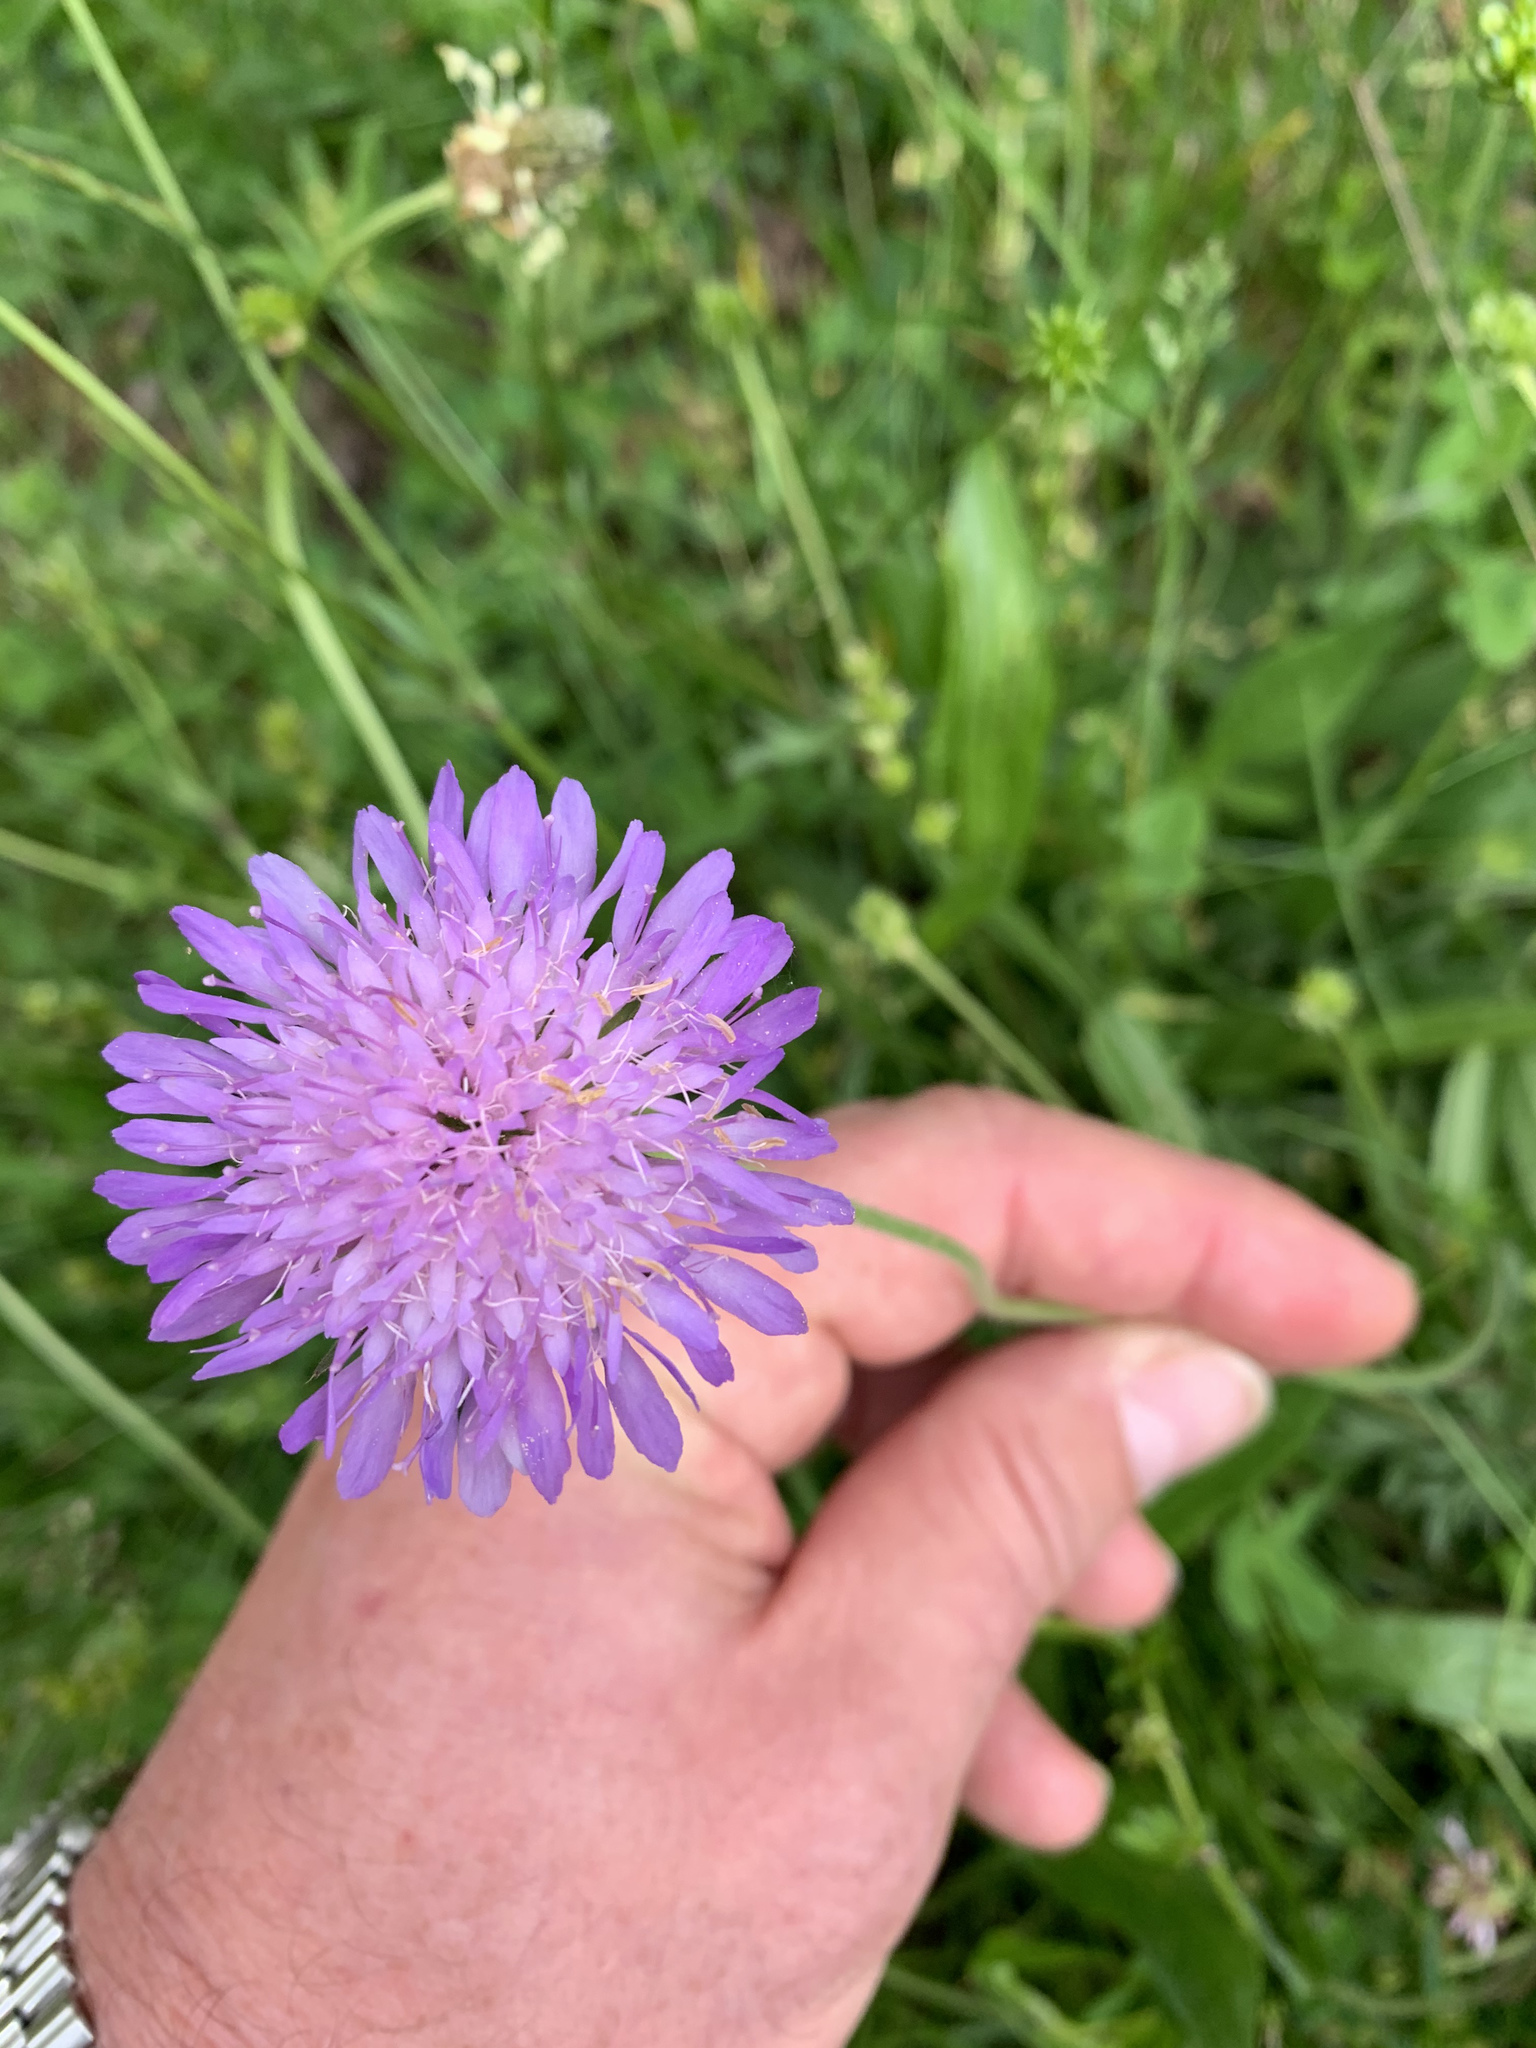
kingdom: Plantae
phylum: Tracheophyta
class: Magnoliopsida
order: Dipsacales
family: Caprifoliaceae
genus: Knautia
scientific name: Knautia transalpina
